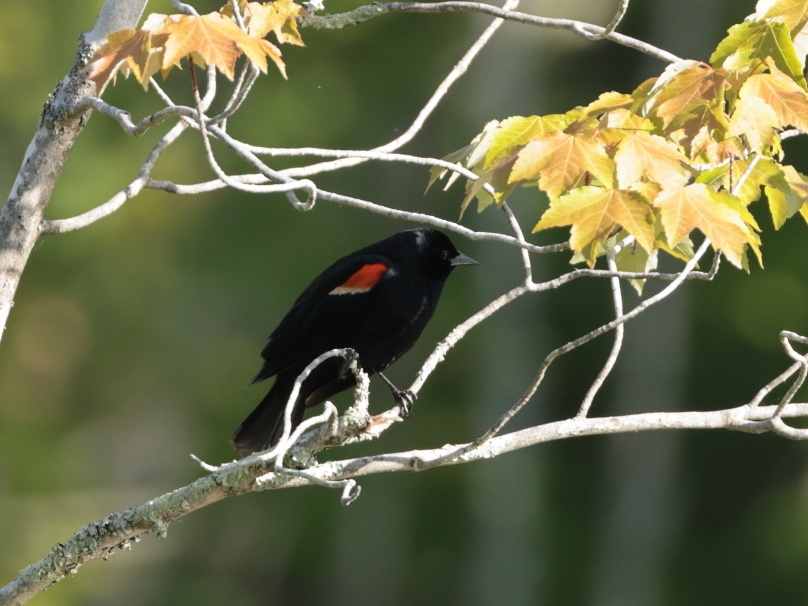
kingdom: Animalia
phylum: Chordata
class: Aves
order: Passeriformes
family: Icteridae
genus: Agelaius
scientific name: Agelaius phoeniceus
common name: Red-winged blackbird
